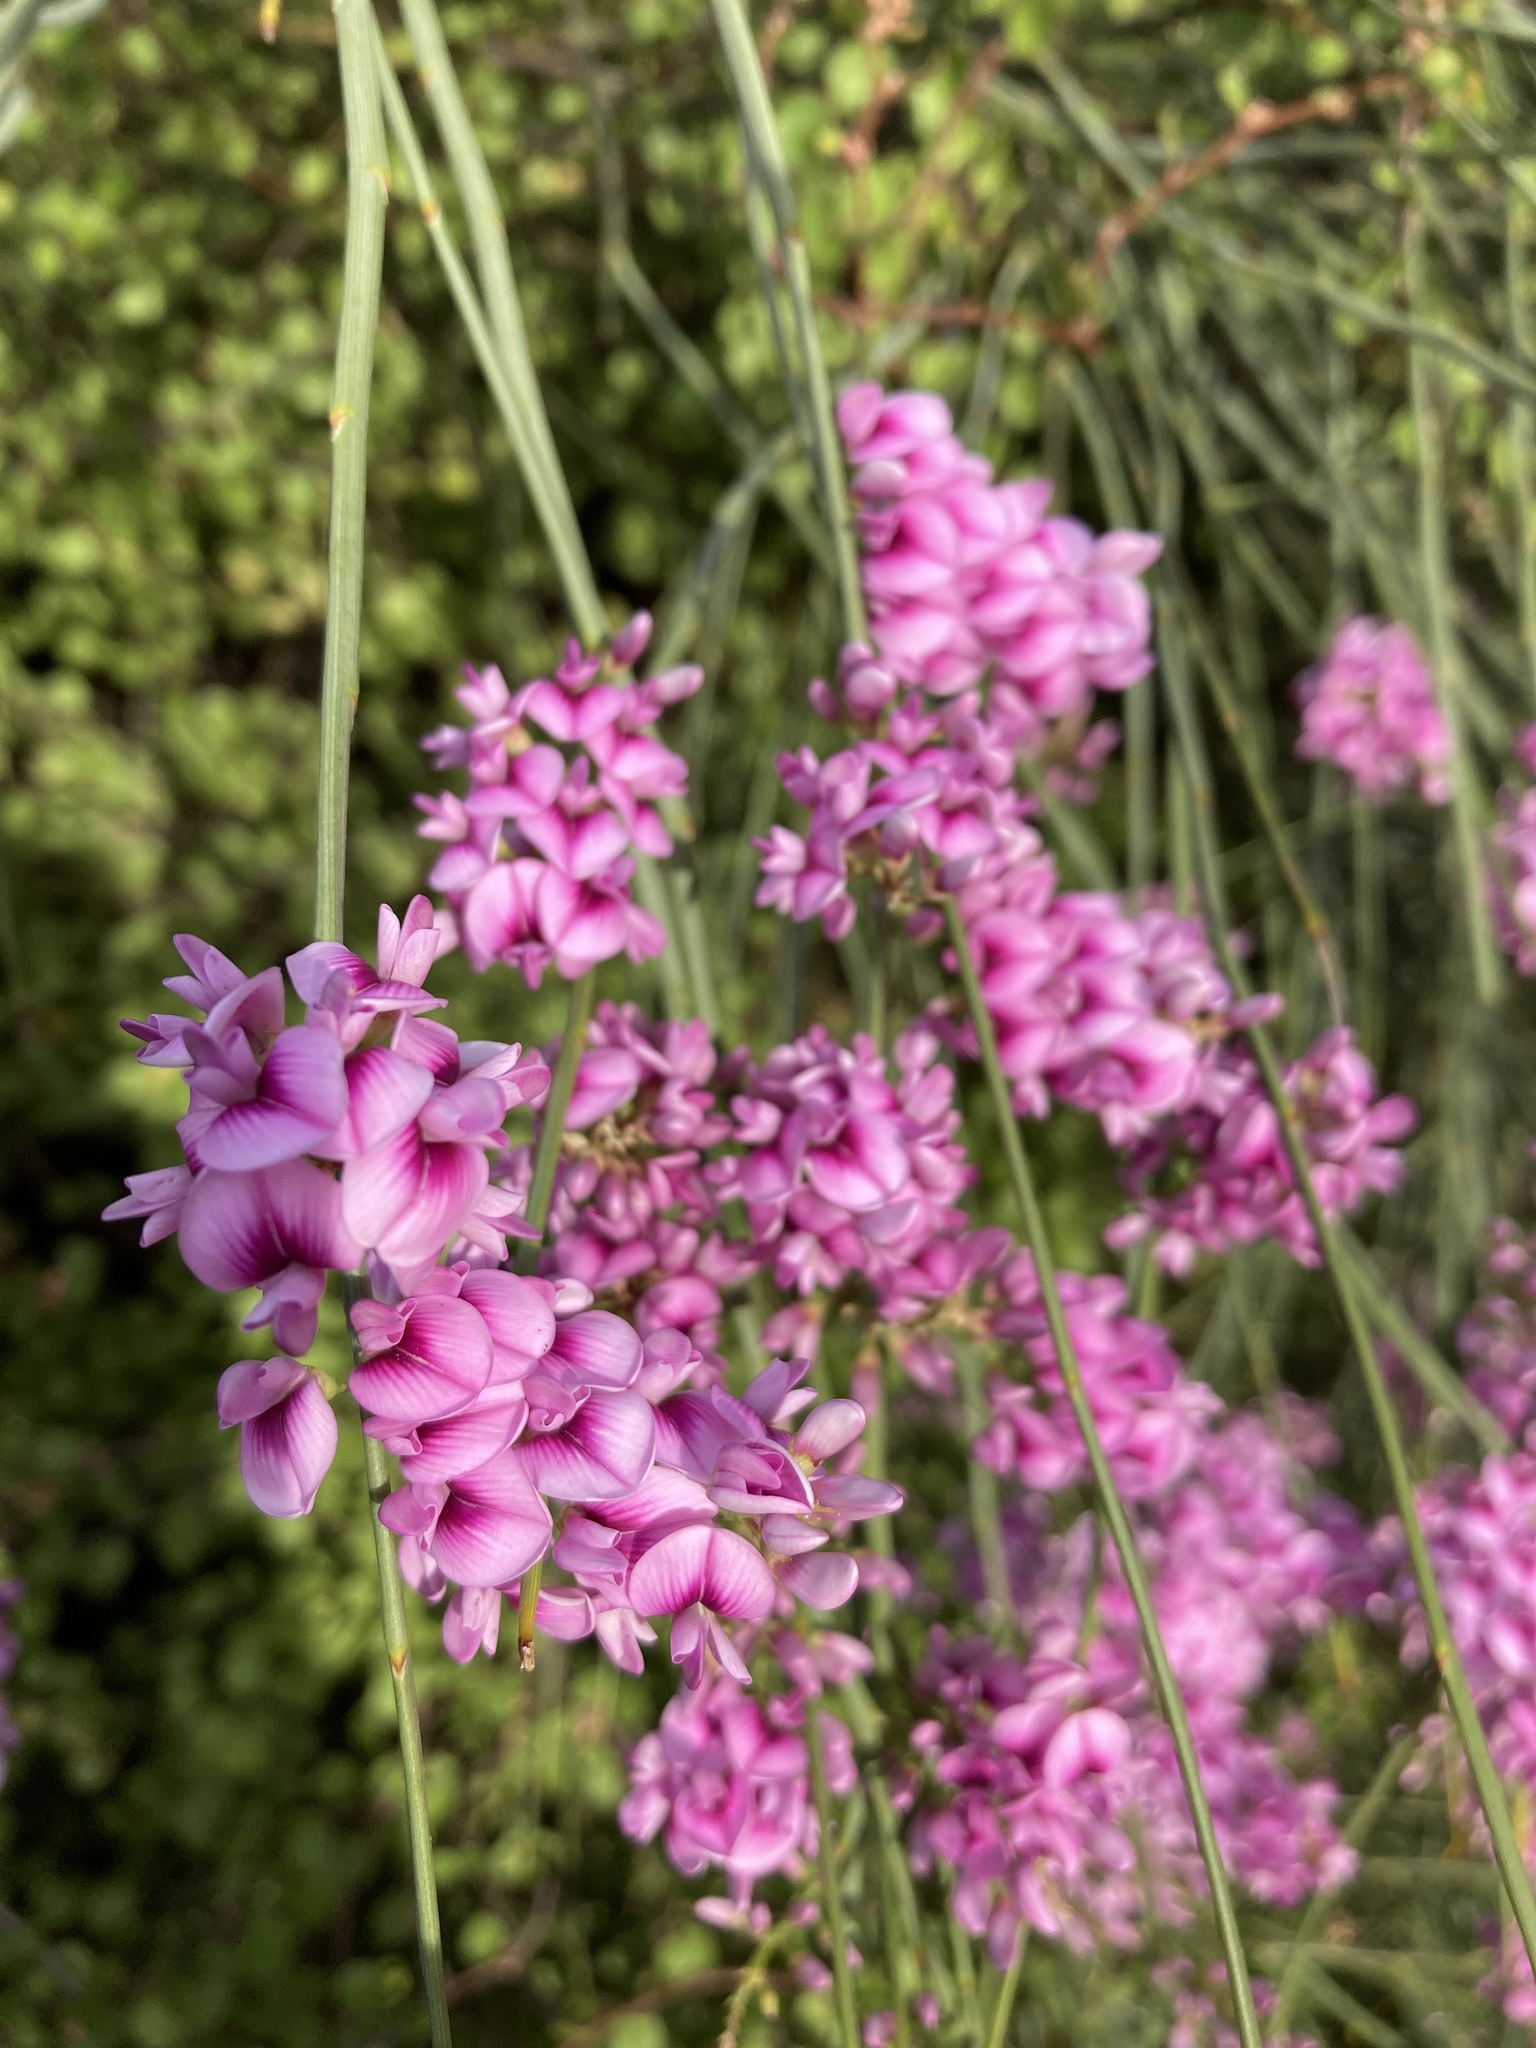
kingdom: Plantae
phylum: Tracheophyta
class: Magnoliopsida
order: Fabales
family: Fabaceae
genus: Carmichaelia
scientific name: Carmichaelia glabrescens
